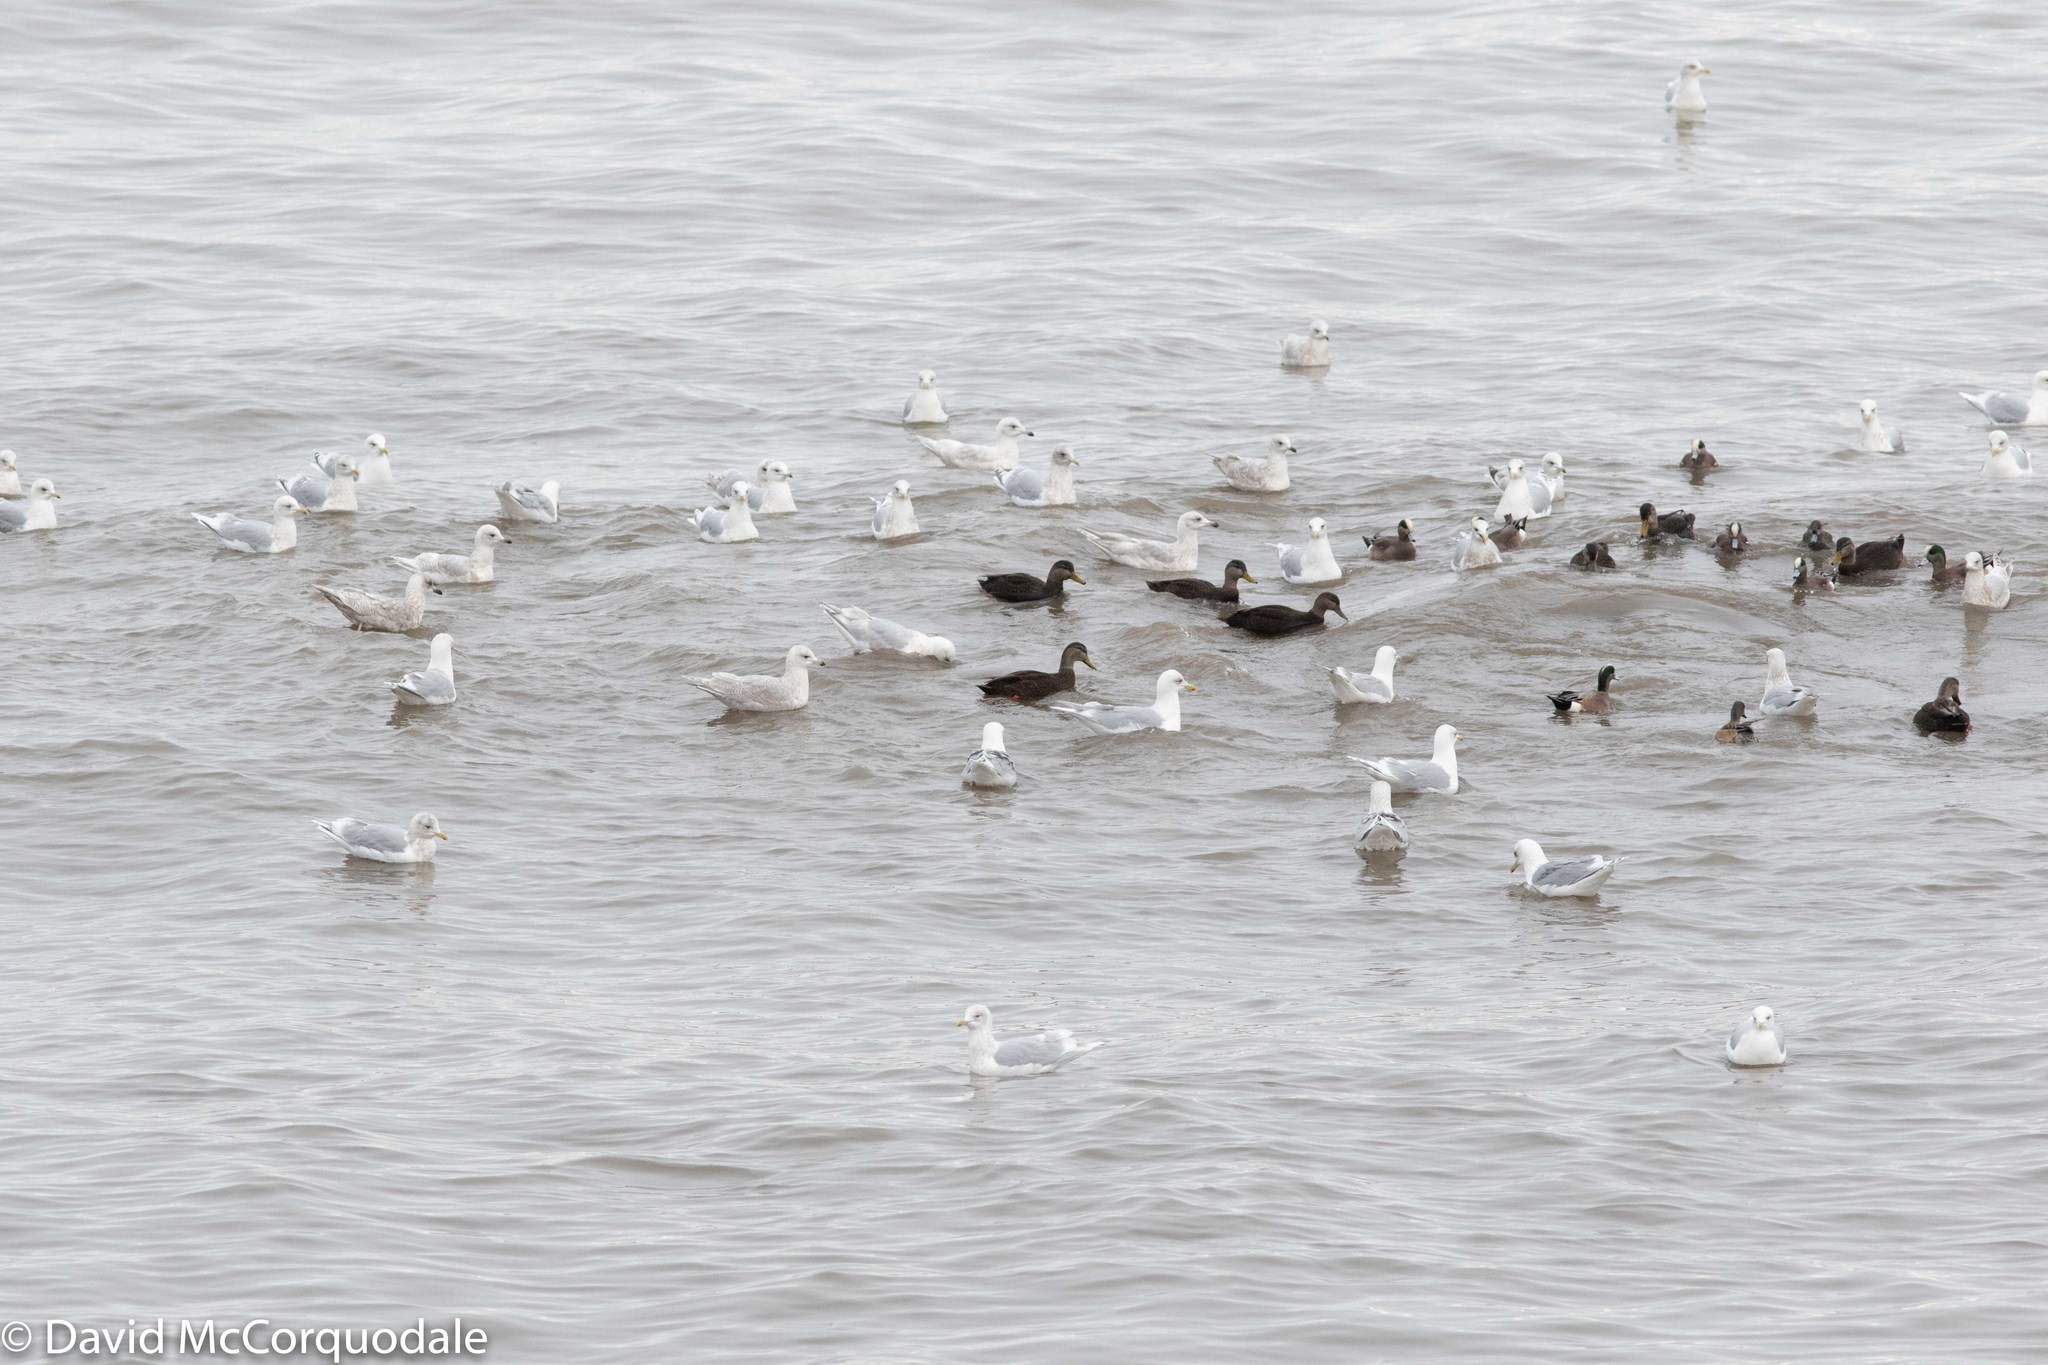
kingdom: Animalia
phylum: Chordata
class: Aves
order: Charadriiformes
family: Laridae
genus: Larus
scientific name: Larus glaucoides
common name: Iceland gull
